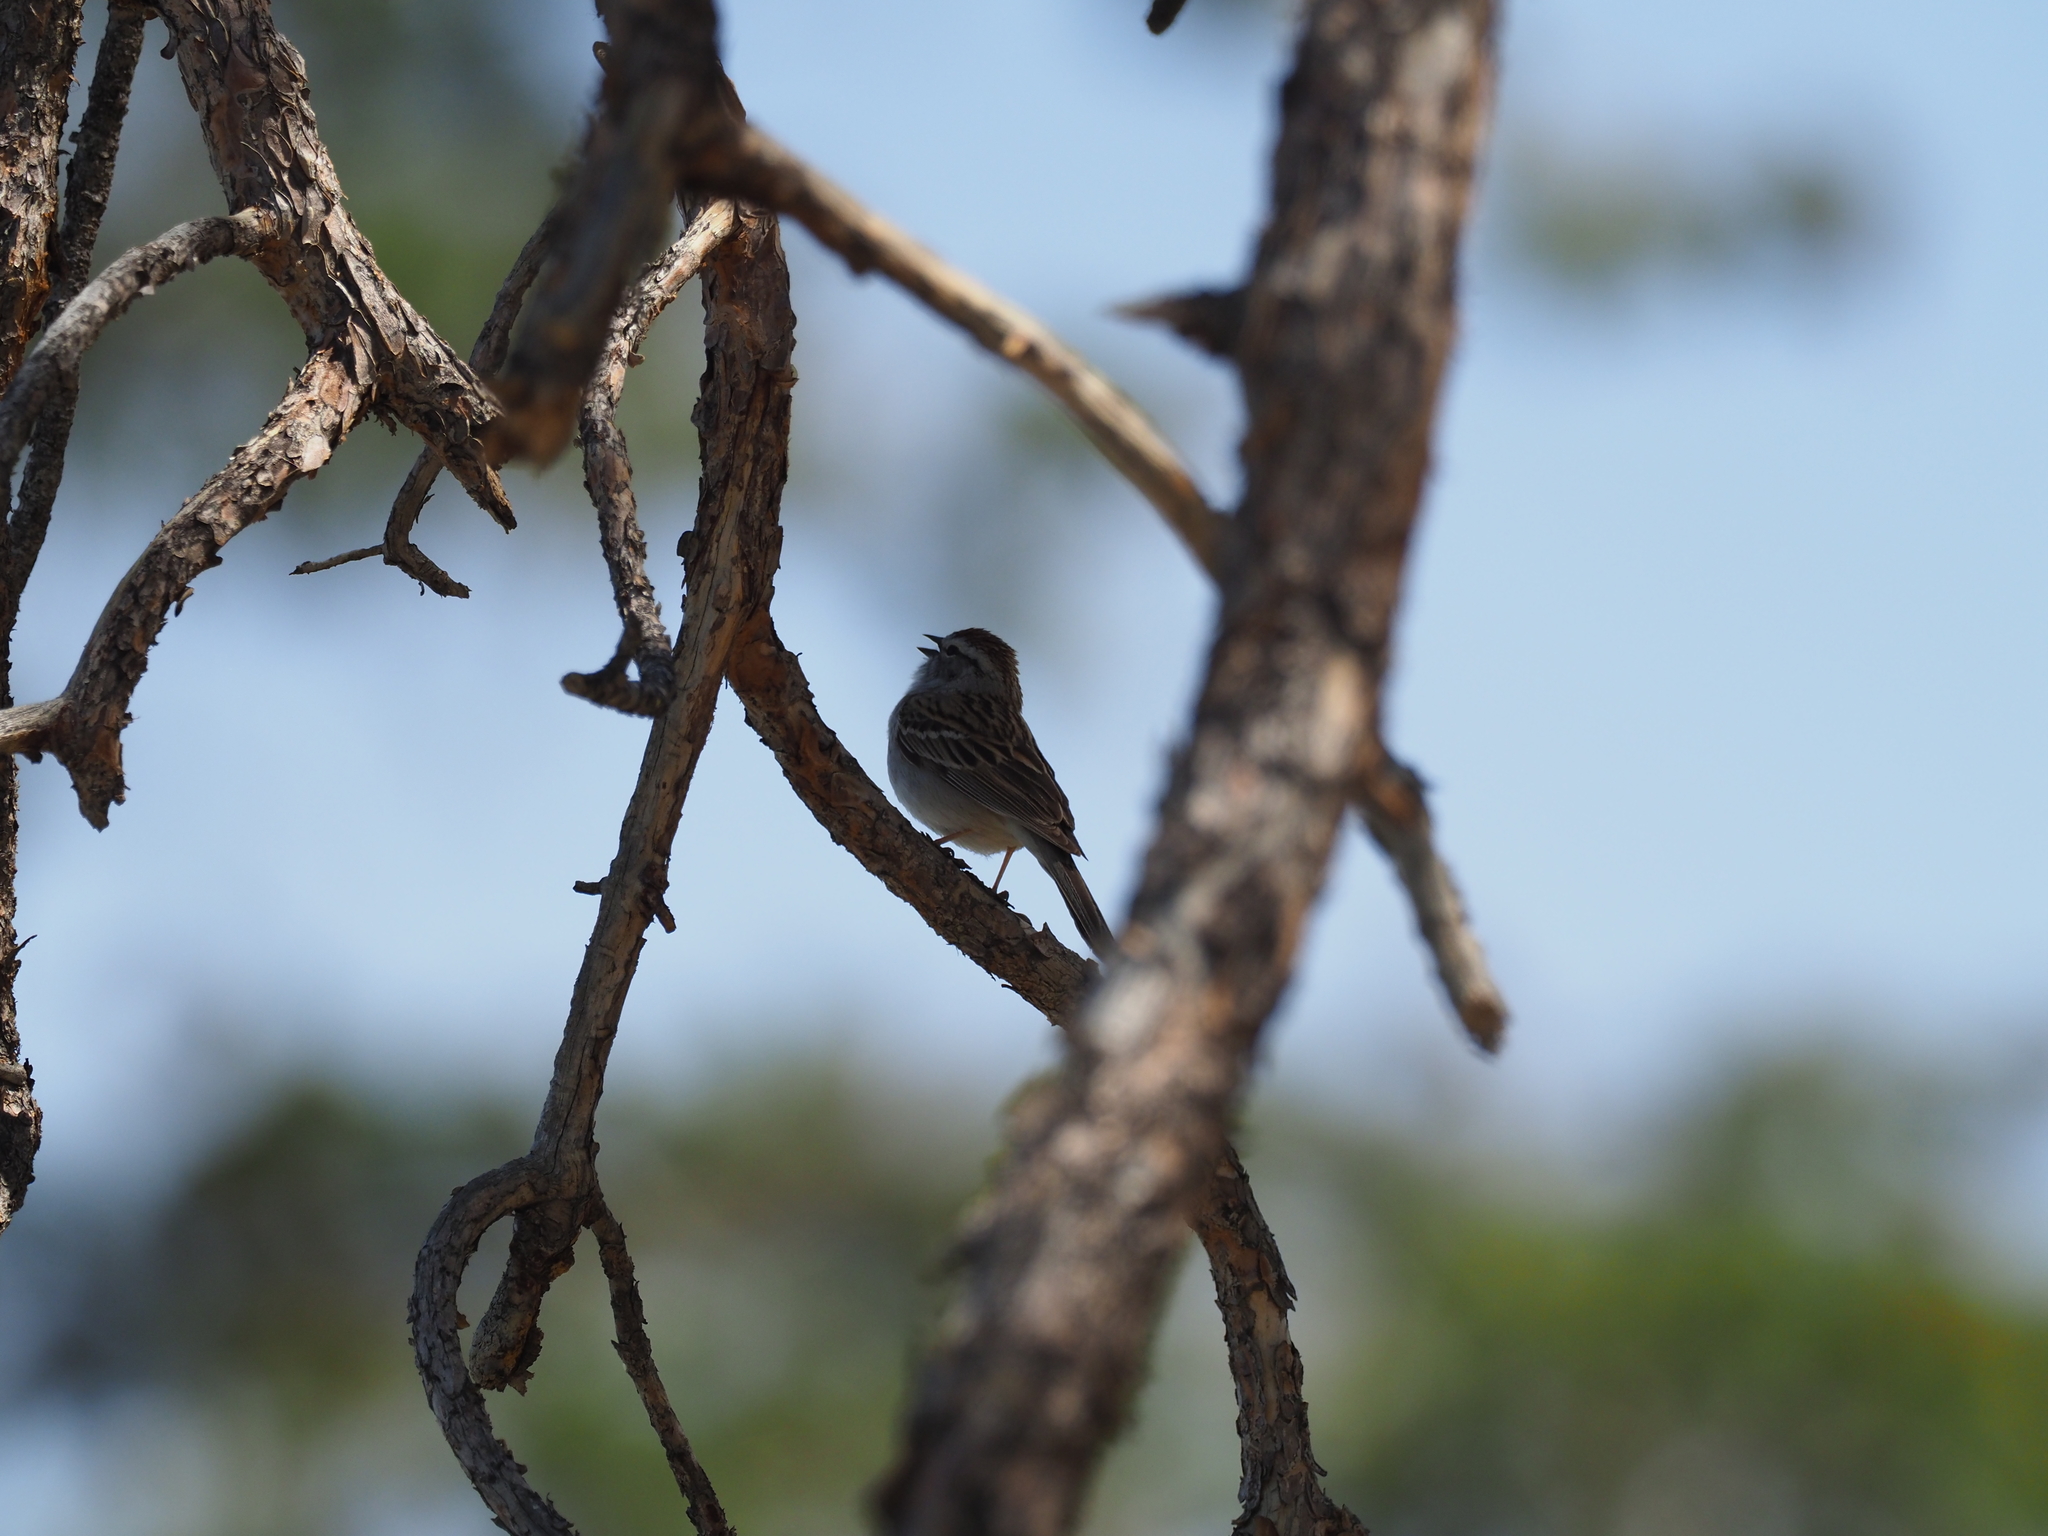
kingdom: Animalia
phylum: Chordata
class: Aves
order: Passeriformes
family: Passerellidae
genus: Spizella
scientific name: Spizella passerina
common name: Chipping sparrow
